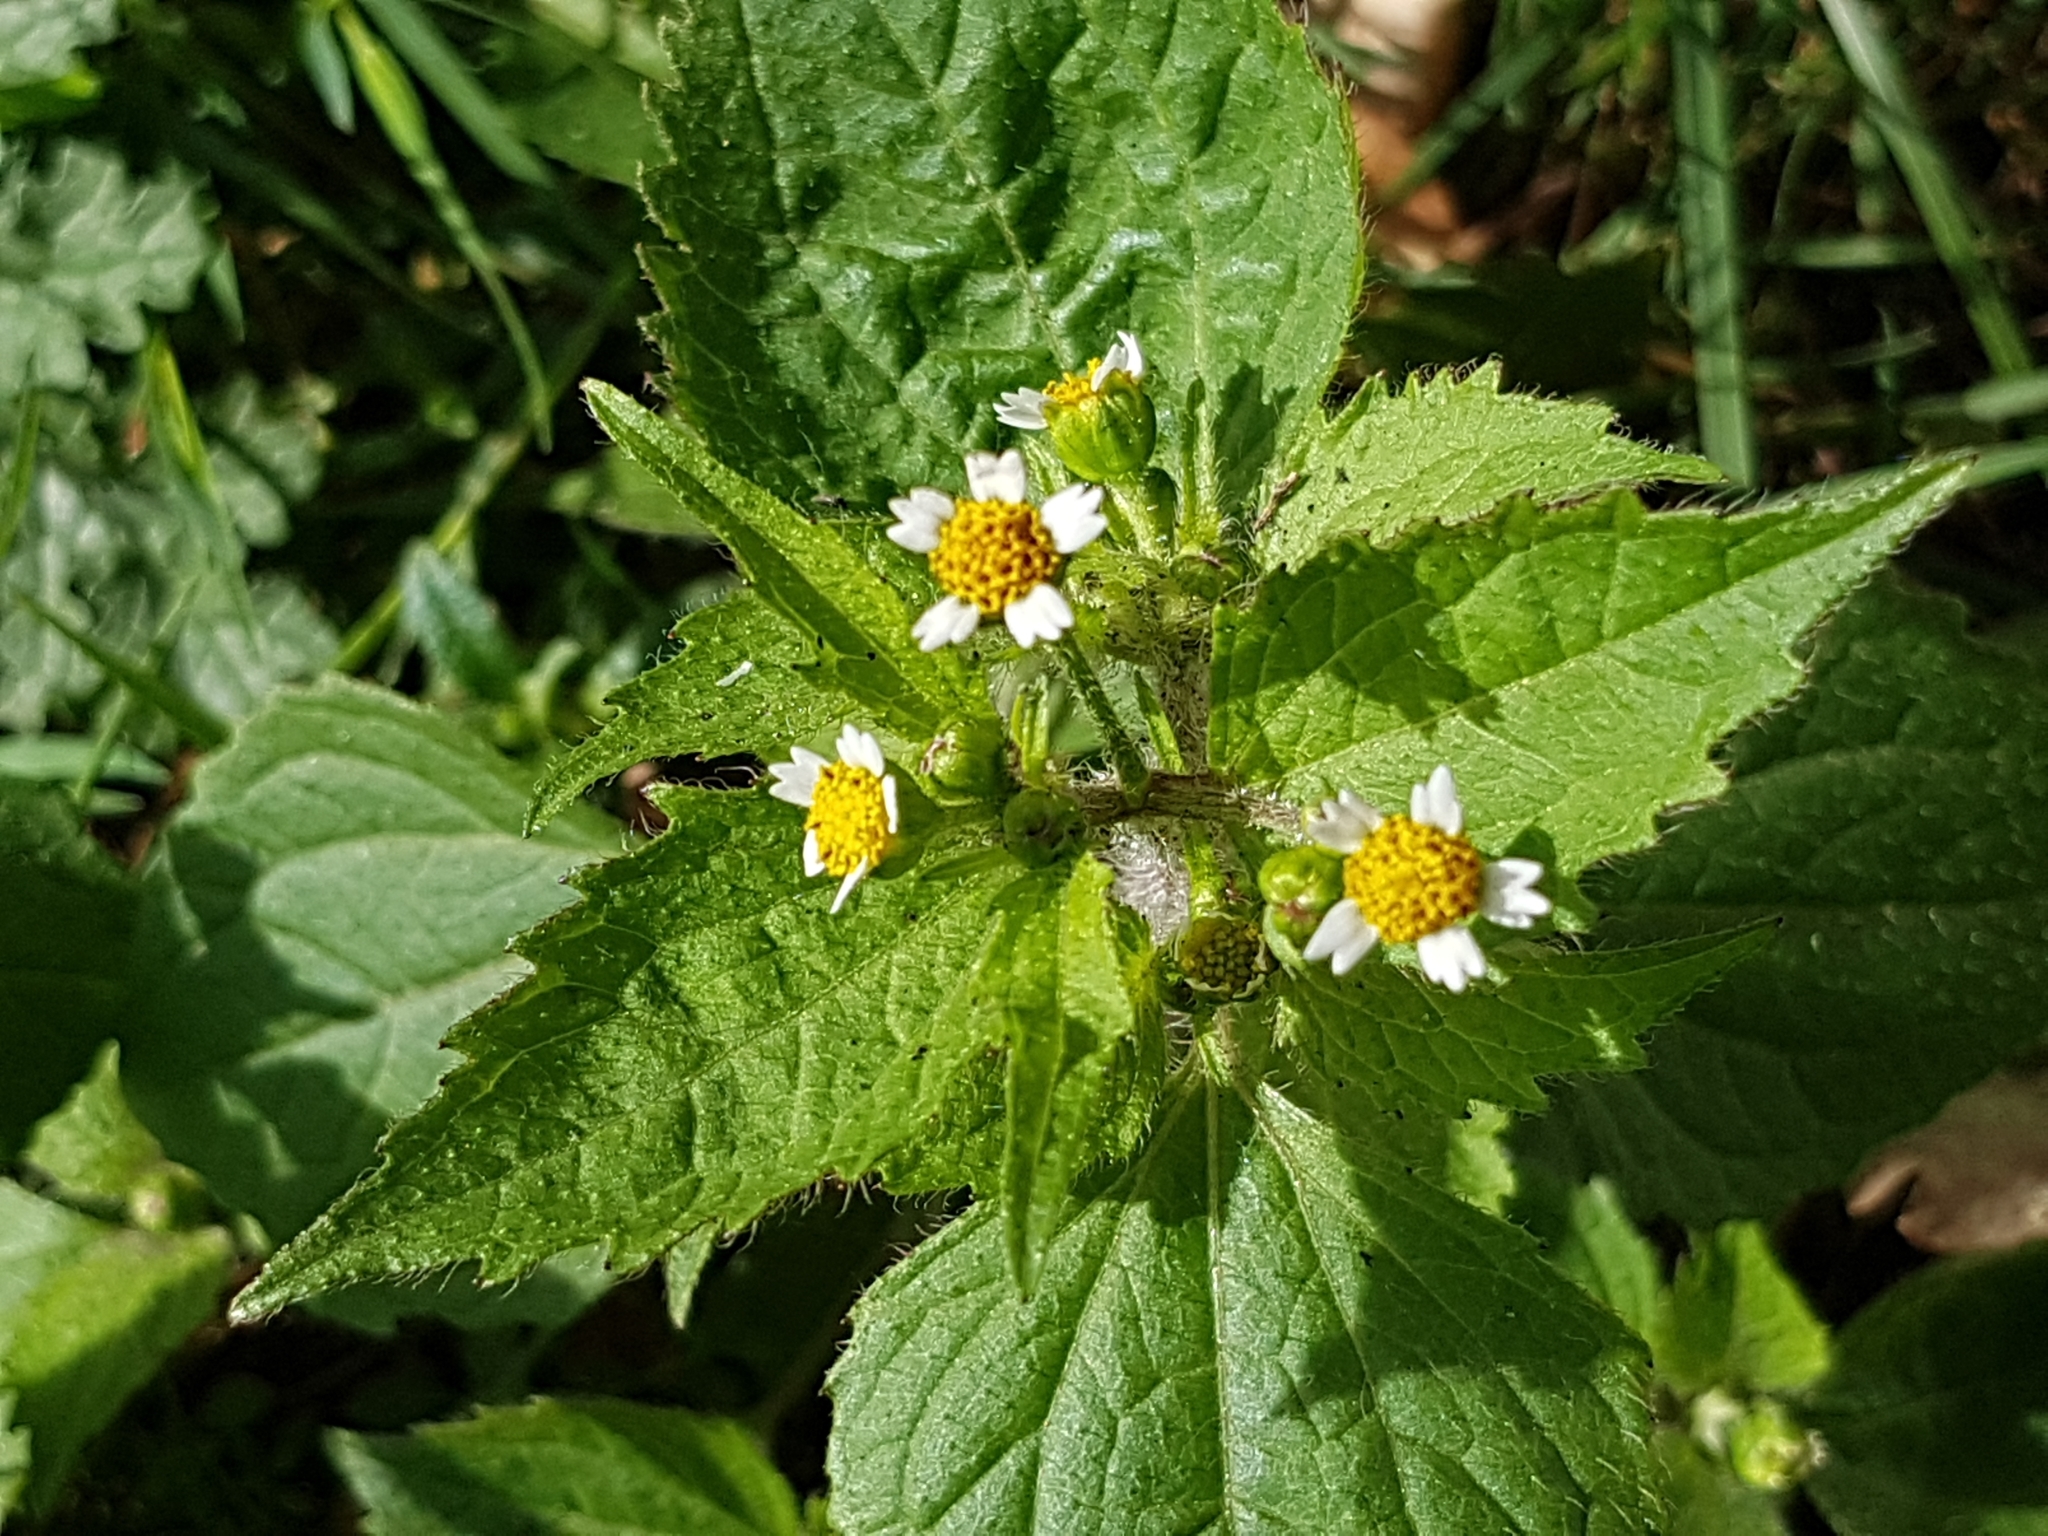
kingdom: Plantae
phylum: Tracheophyta
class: Magnoliopsida
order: Asterales
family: Asteraceae
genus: Galinsoga
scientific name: Galinsoga quadriradiata
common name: Shaggy soldier
